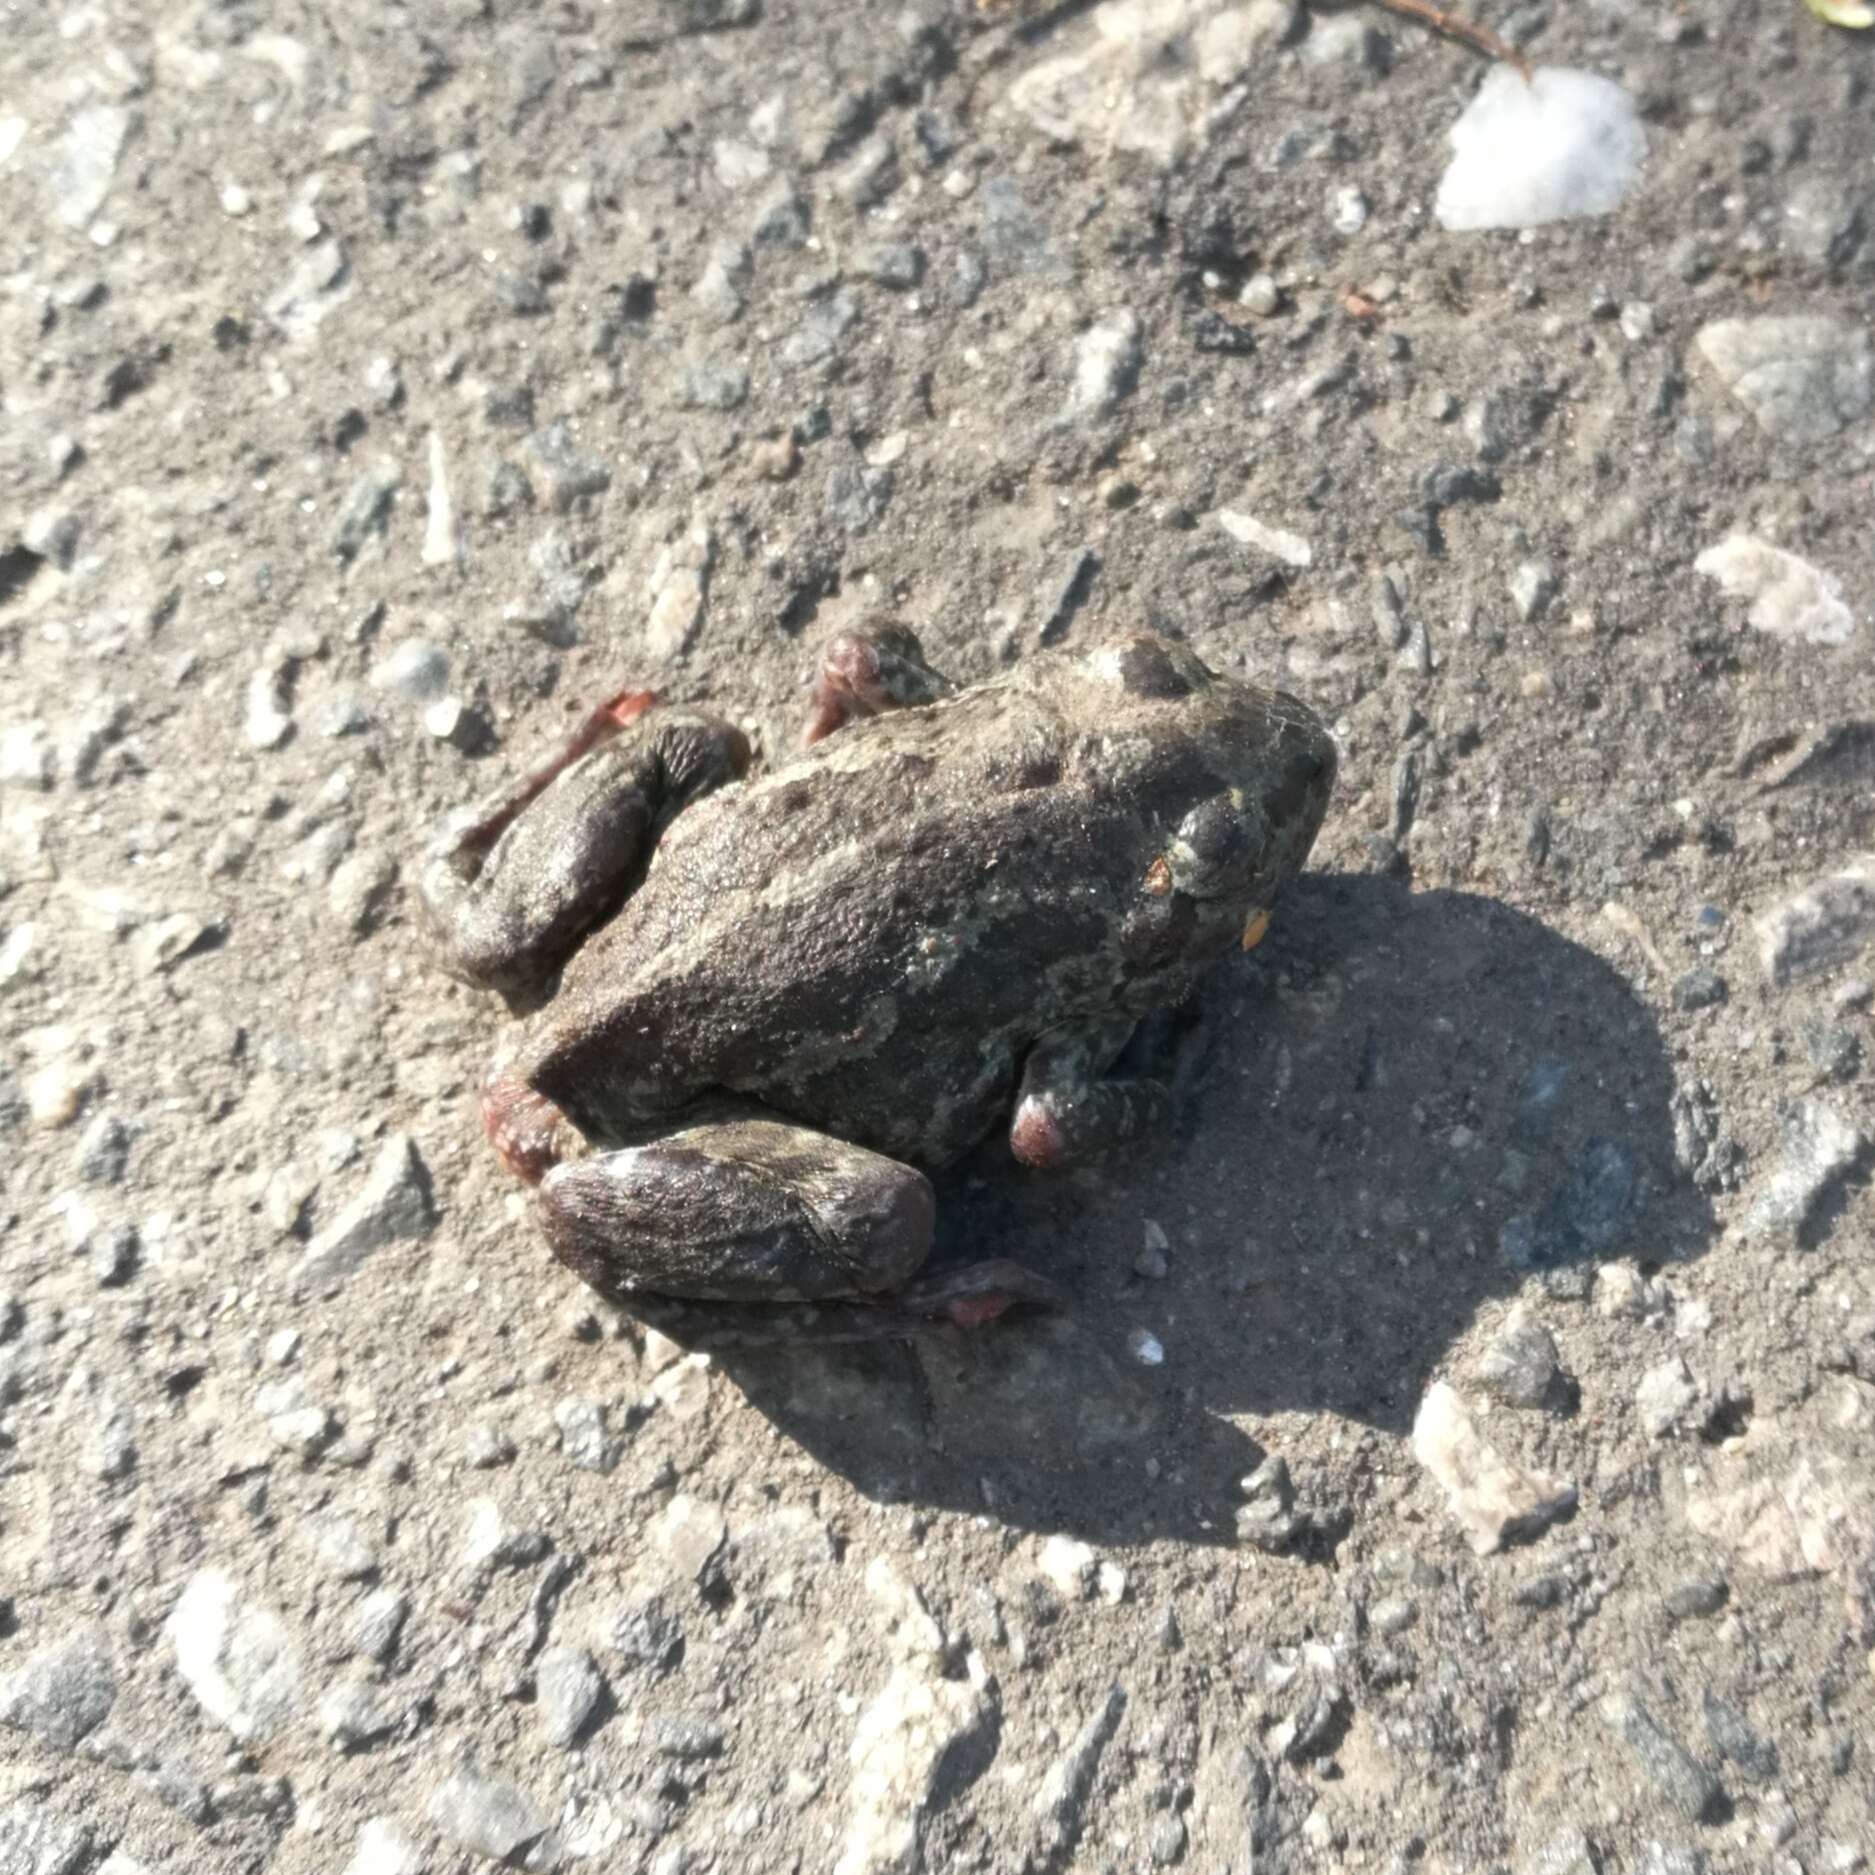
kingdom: Animalia
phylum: Chordata
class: Amphibia
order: Anura
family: Pelobatidae
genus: Pelobates
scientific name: Pelobates vespertinus
